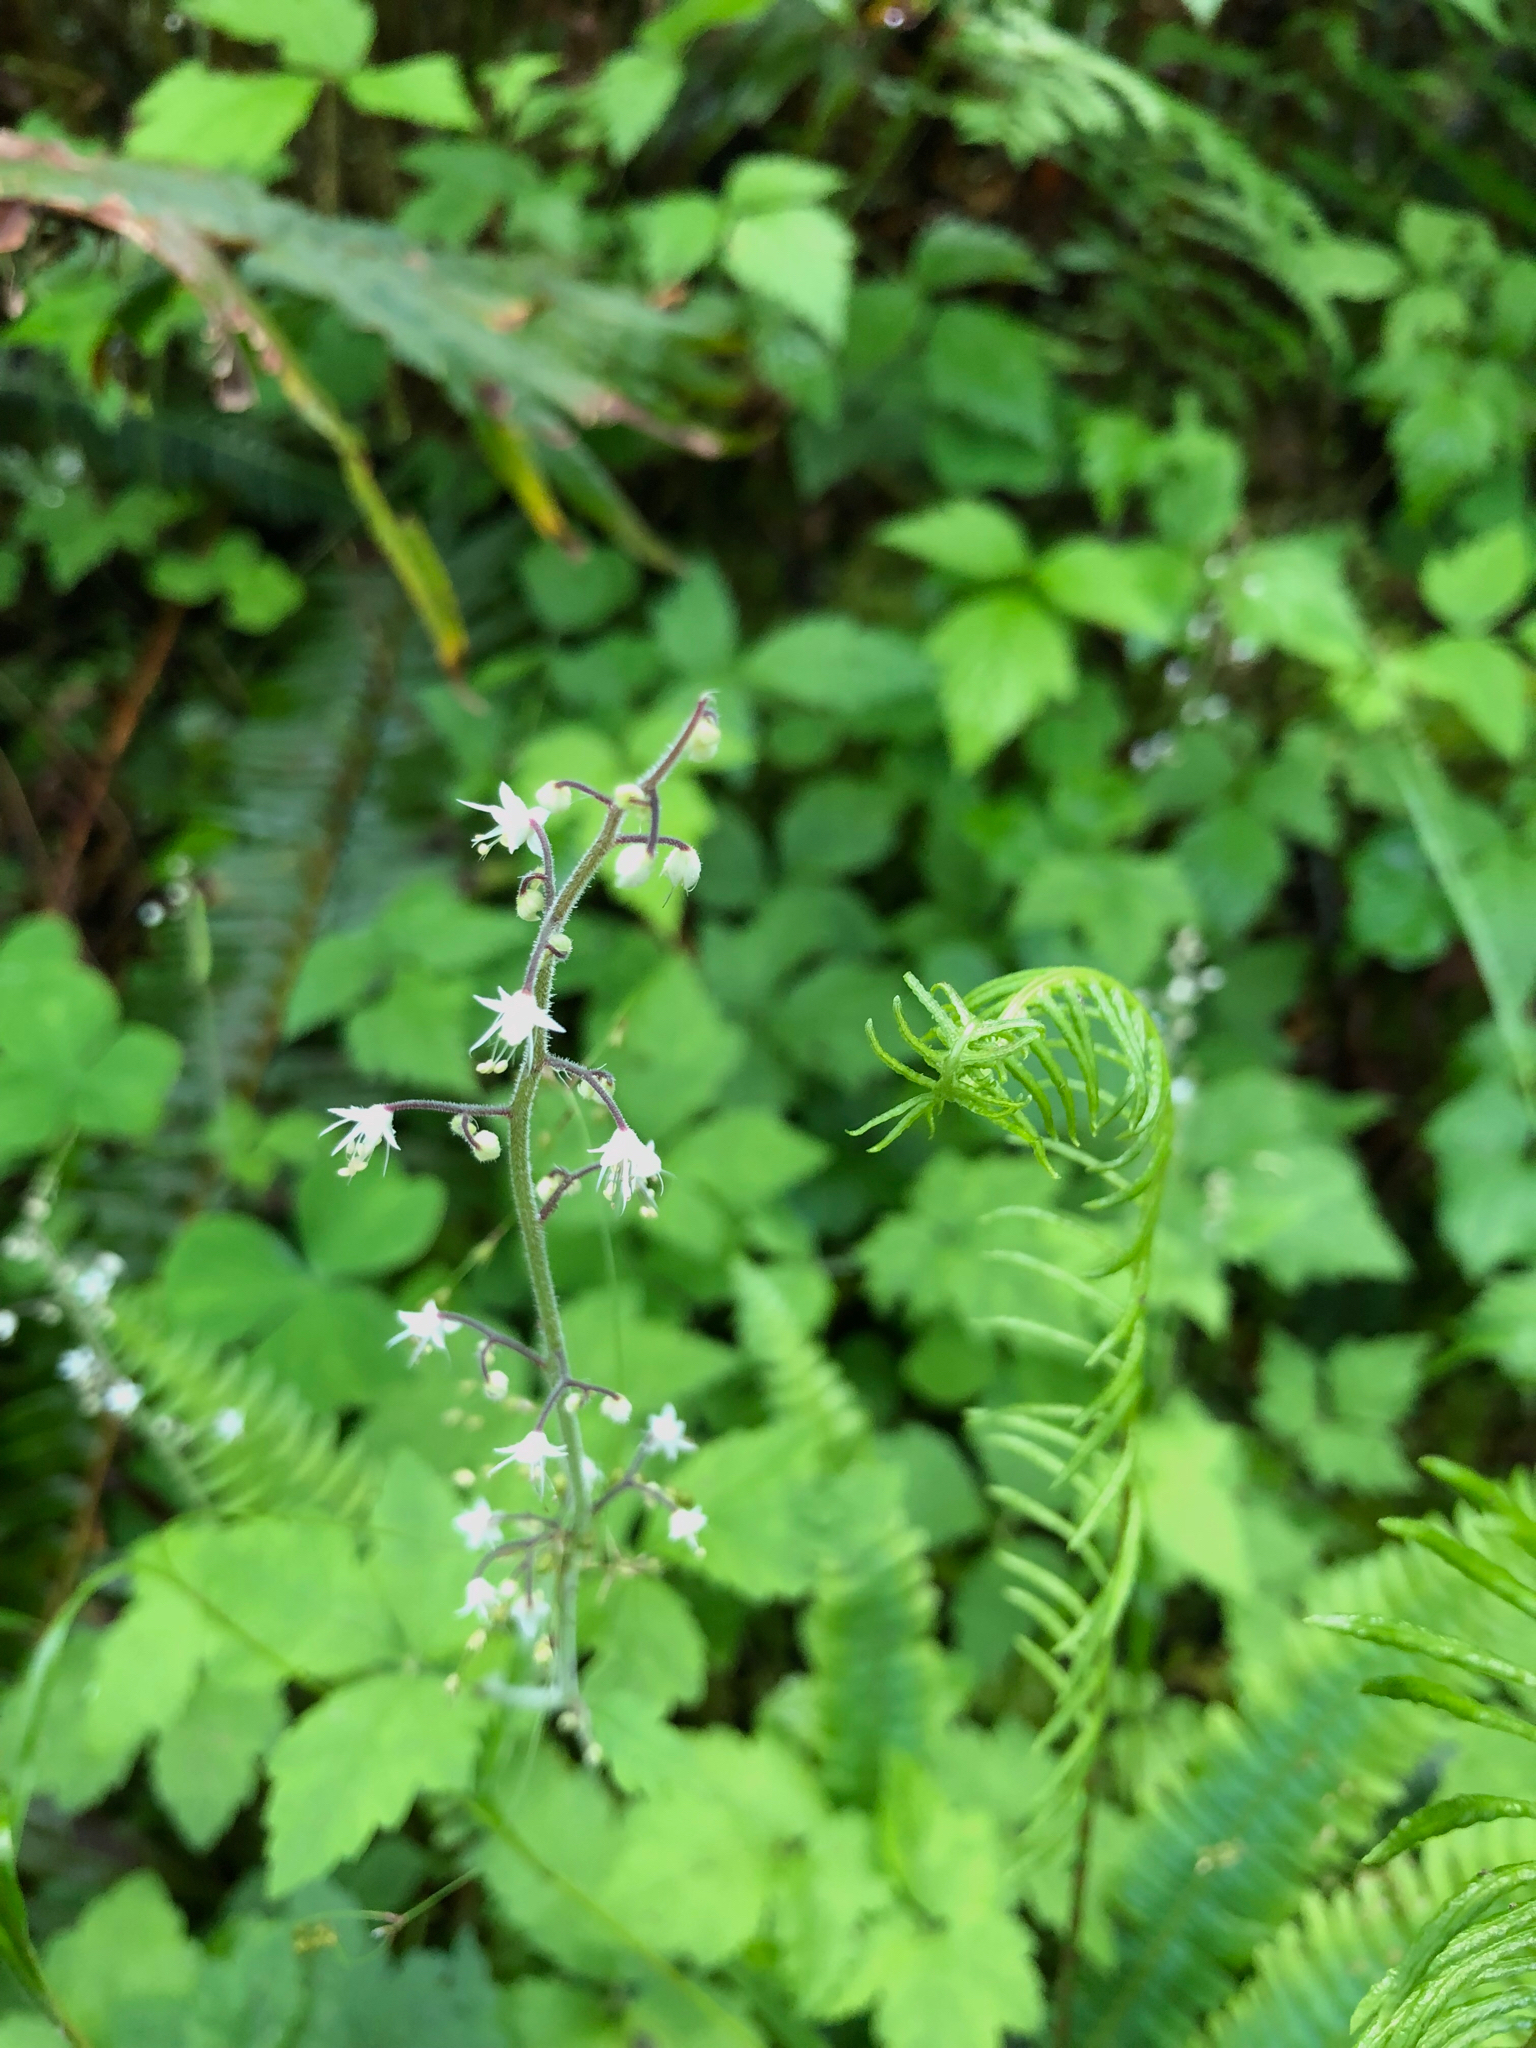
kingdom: Plantae
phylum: Tracheophyta
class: Magnoliopsida
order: Saxifragales
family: Saxifragaceae
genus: Tiarella
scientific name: Tiarella trifoliata
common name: Sugar-scoop
